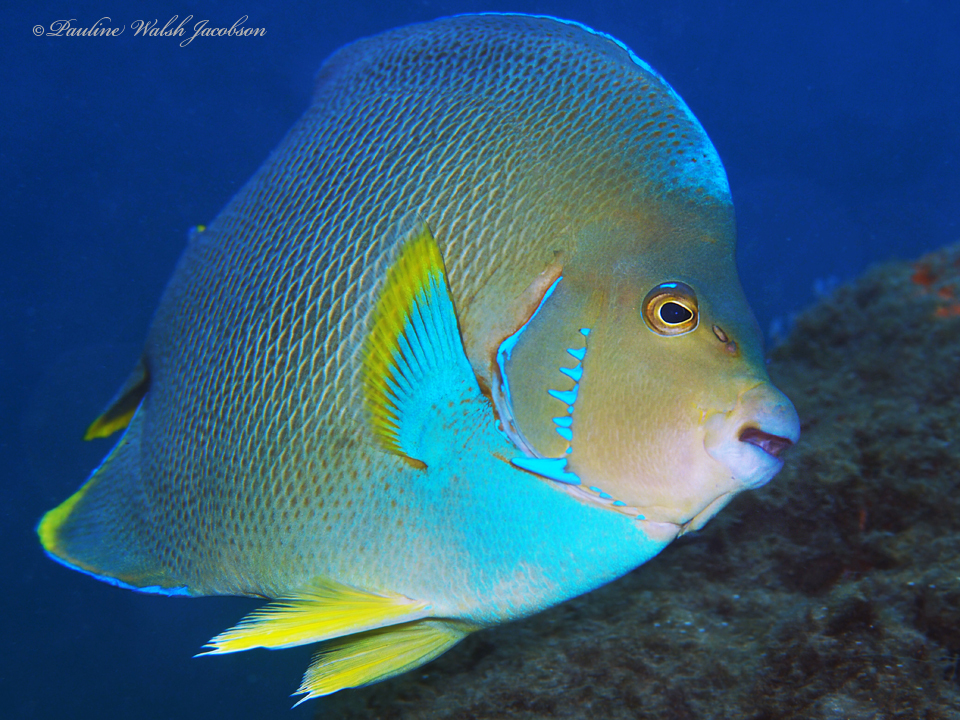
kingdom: Animalia
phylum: Chordata
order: Perciformes
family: Pomacanthidae
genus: Holacanthus
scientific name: Holacanthus bermudensis
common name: Blue angelfish
